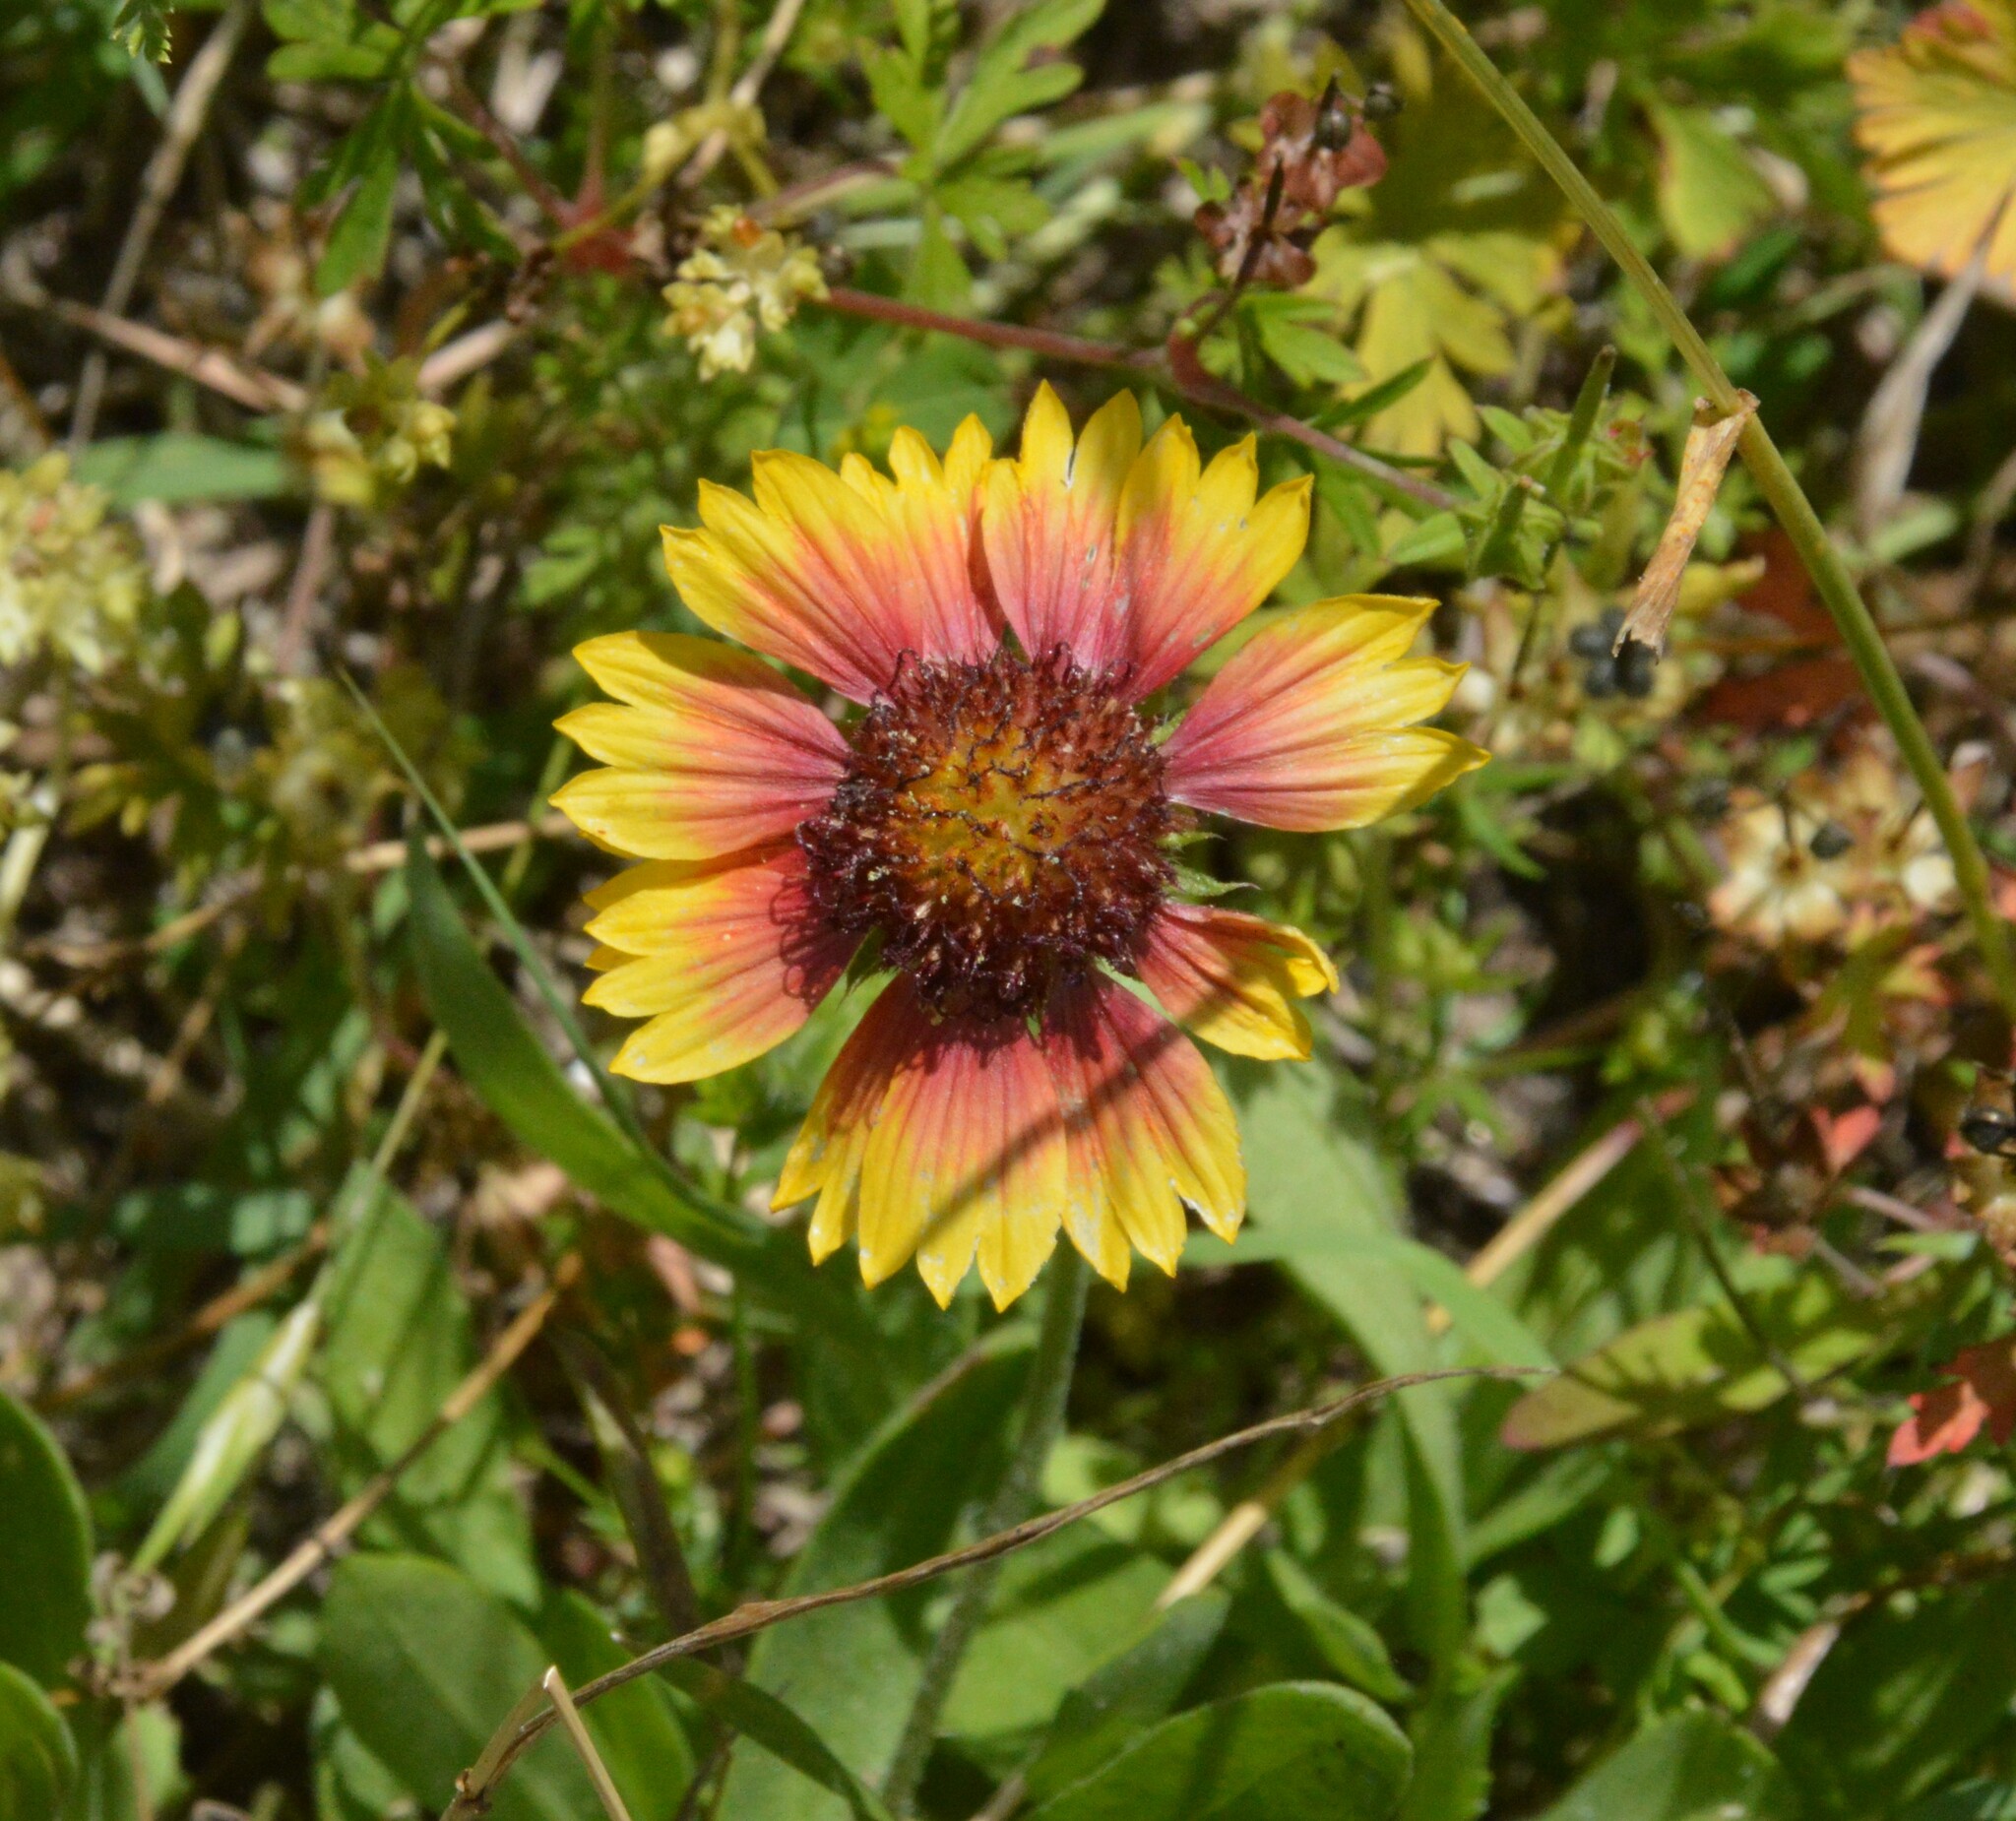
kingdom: Plantae
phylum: Tracheophyta
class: Magnoliopsida
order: Asterales
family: Asteraceae
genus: Gaillardia
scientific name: Gaillardia pulchella
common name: Firewheel
